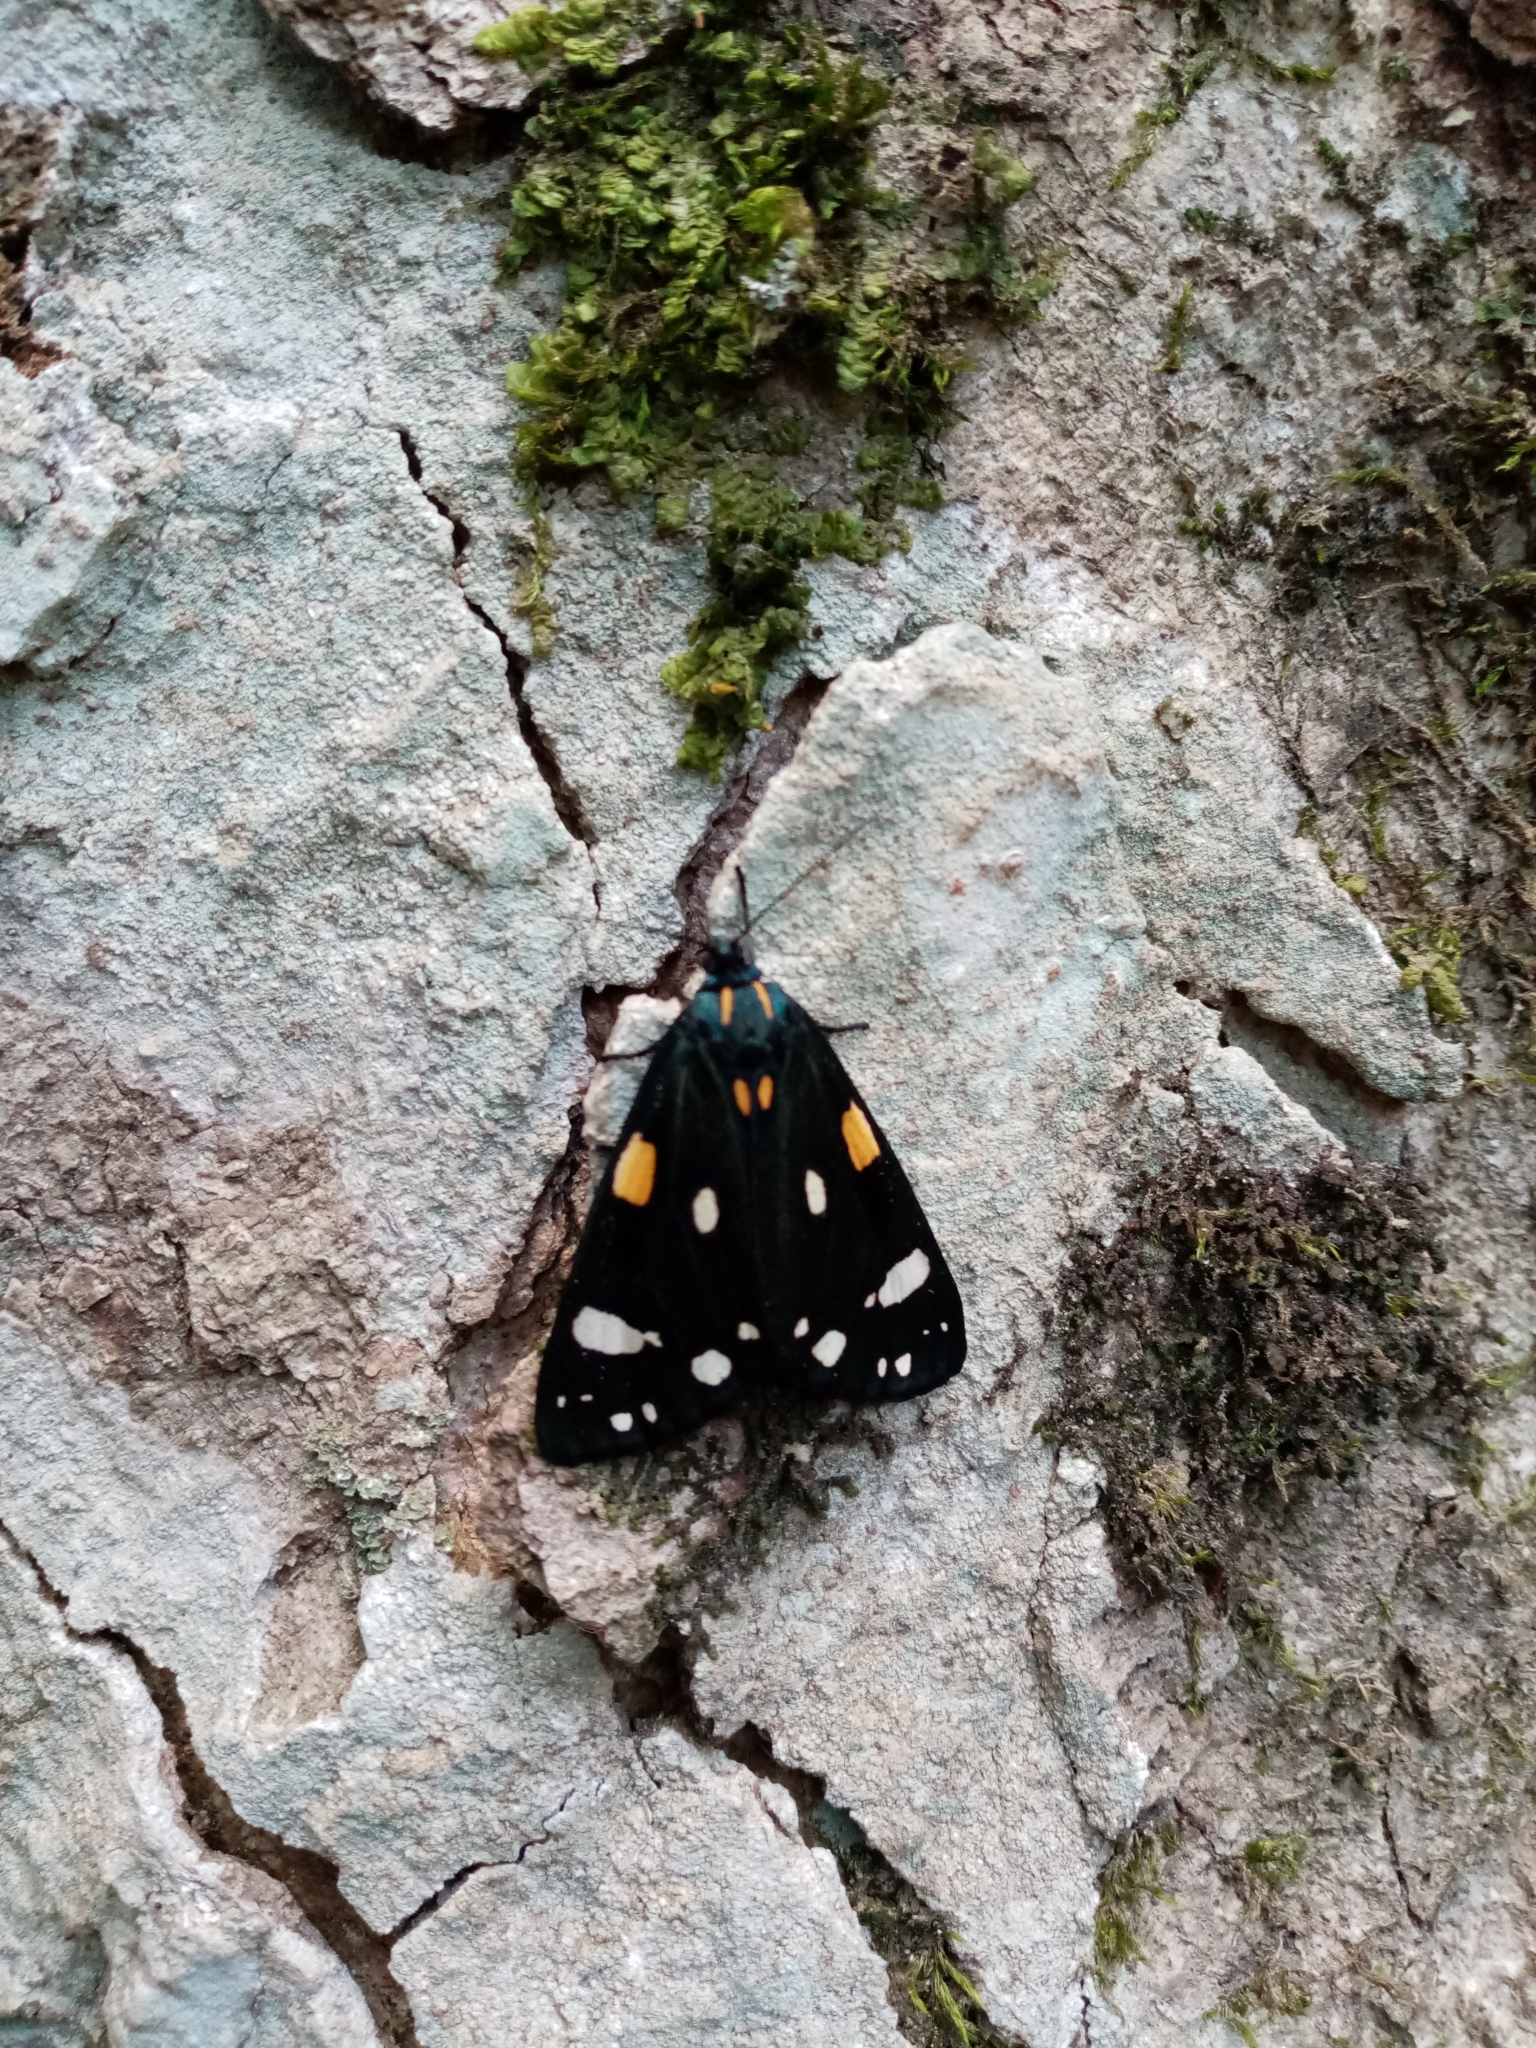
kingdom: Animalia
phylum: Arthropoda
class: Insecta
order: Lepidoptera
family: Erebidae
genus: Callimorpha
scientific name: Callimorpha dominula
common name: Scarlet tiger
